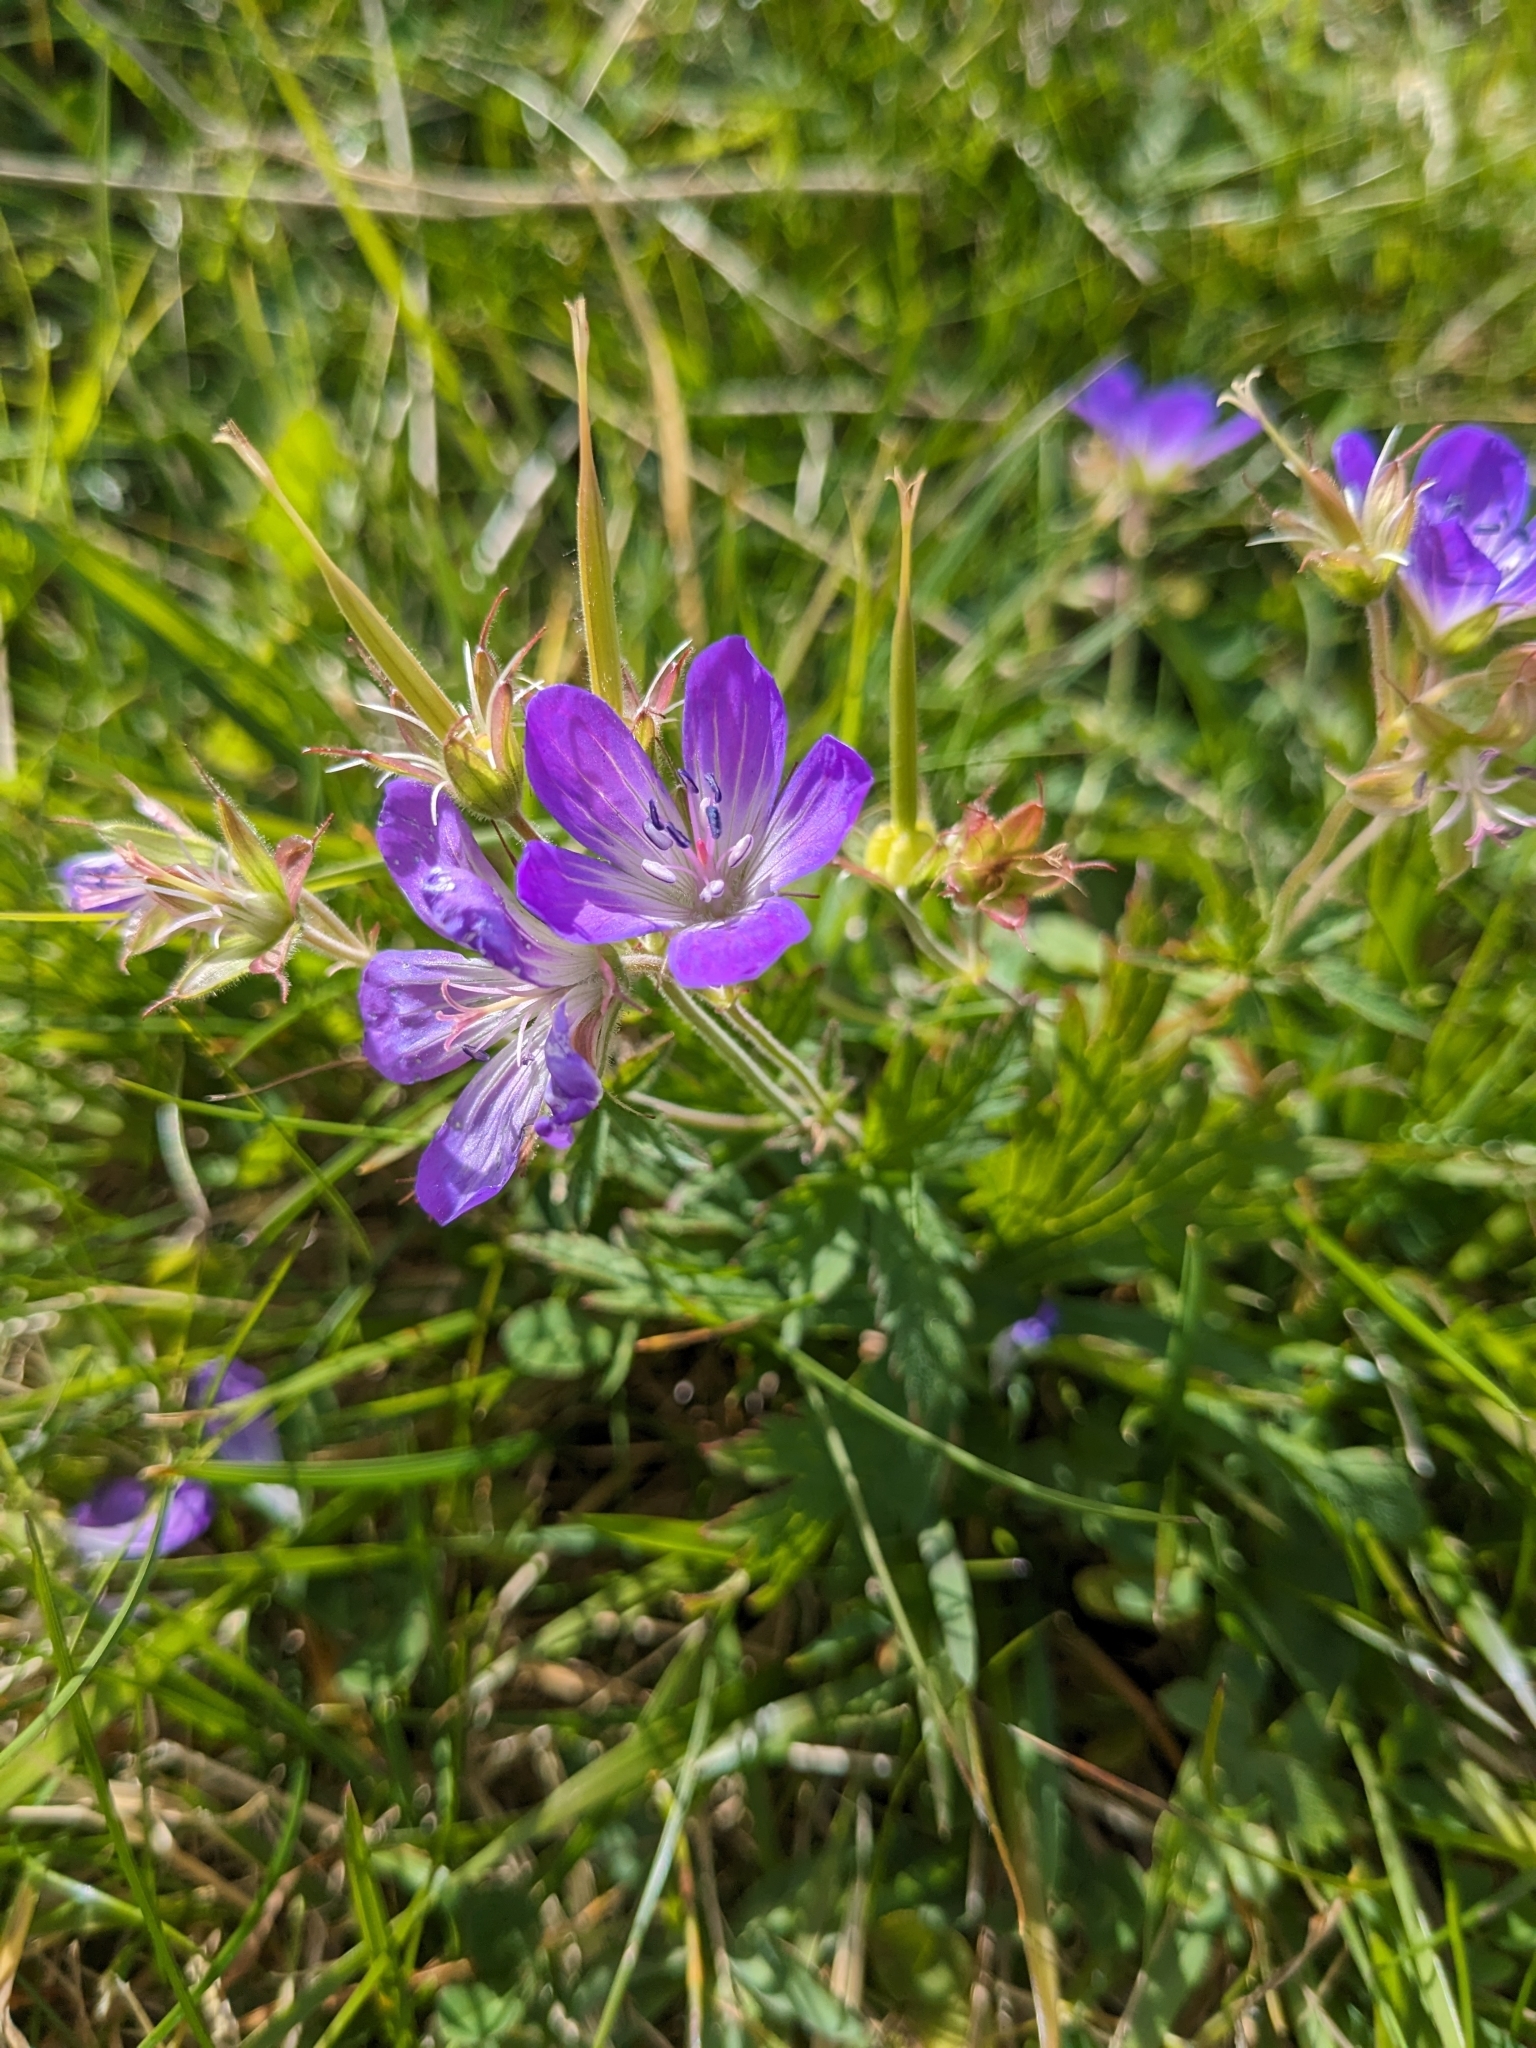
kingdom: Plantae
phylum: Tracheophyta
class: Magnoliopsida
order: Geraniales
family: Geraniaceae
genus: Geranium
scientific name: Geranium sylvaticum
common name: Wood crane's-bill
